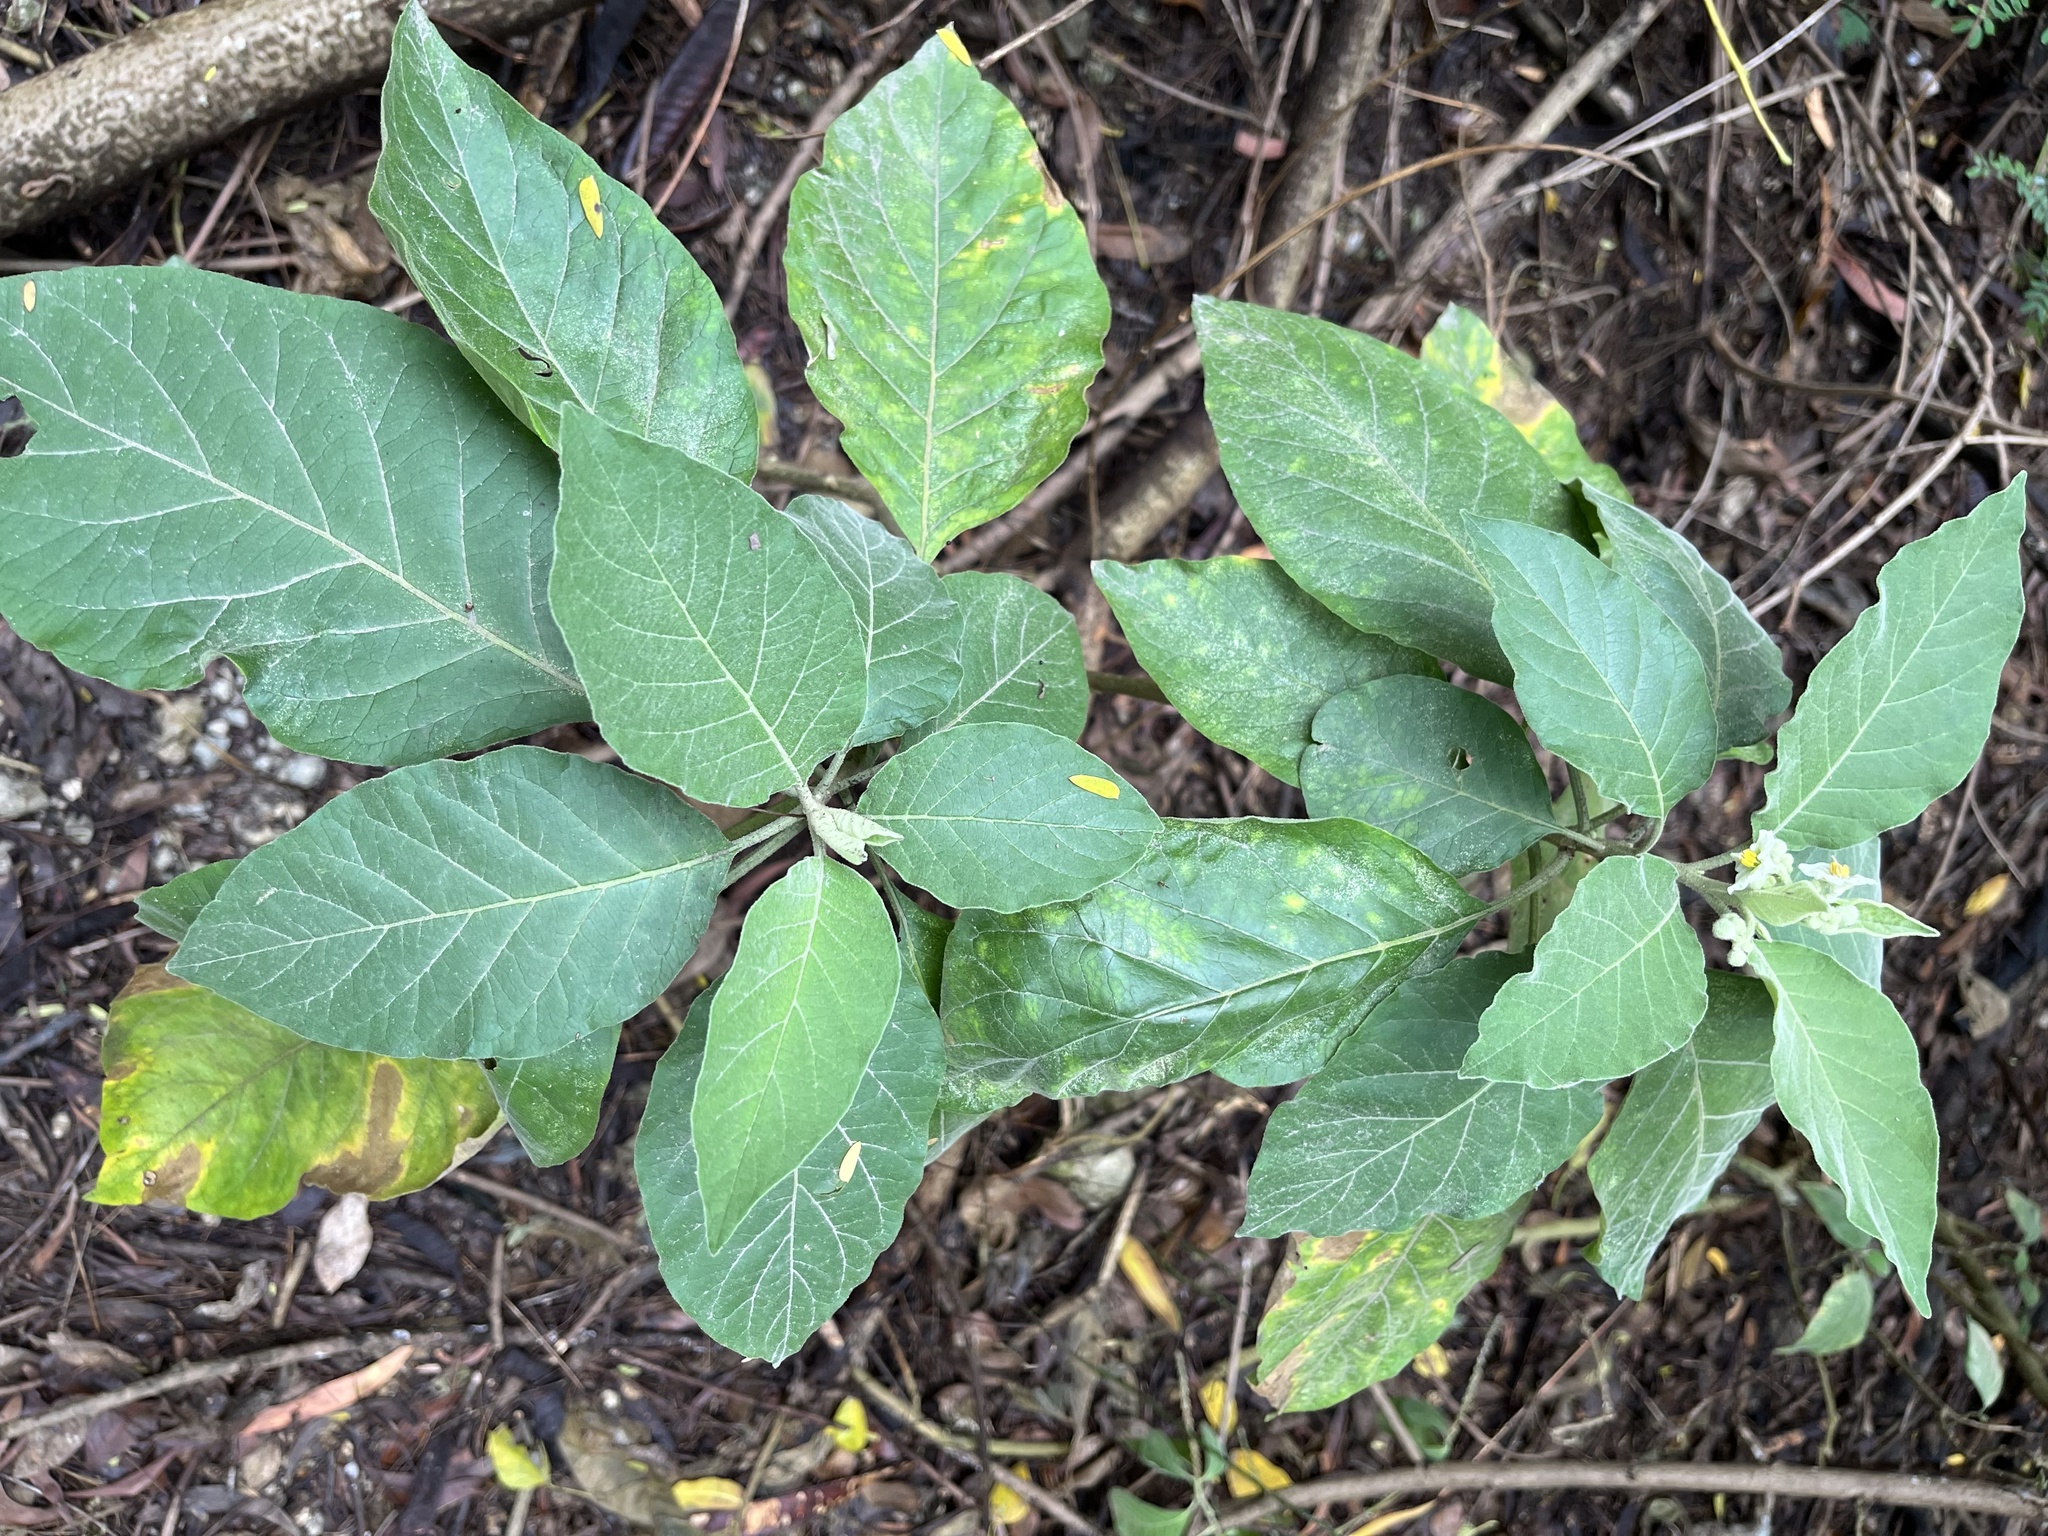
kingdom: Plantae
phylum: Tracheophyta
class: Magnoliopsida
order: Solanales
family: Solanaceae
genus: Solanum
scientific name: Solanum erianthum
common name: Tobacco-tree
